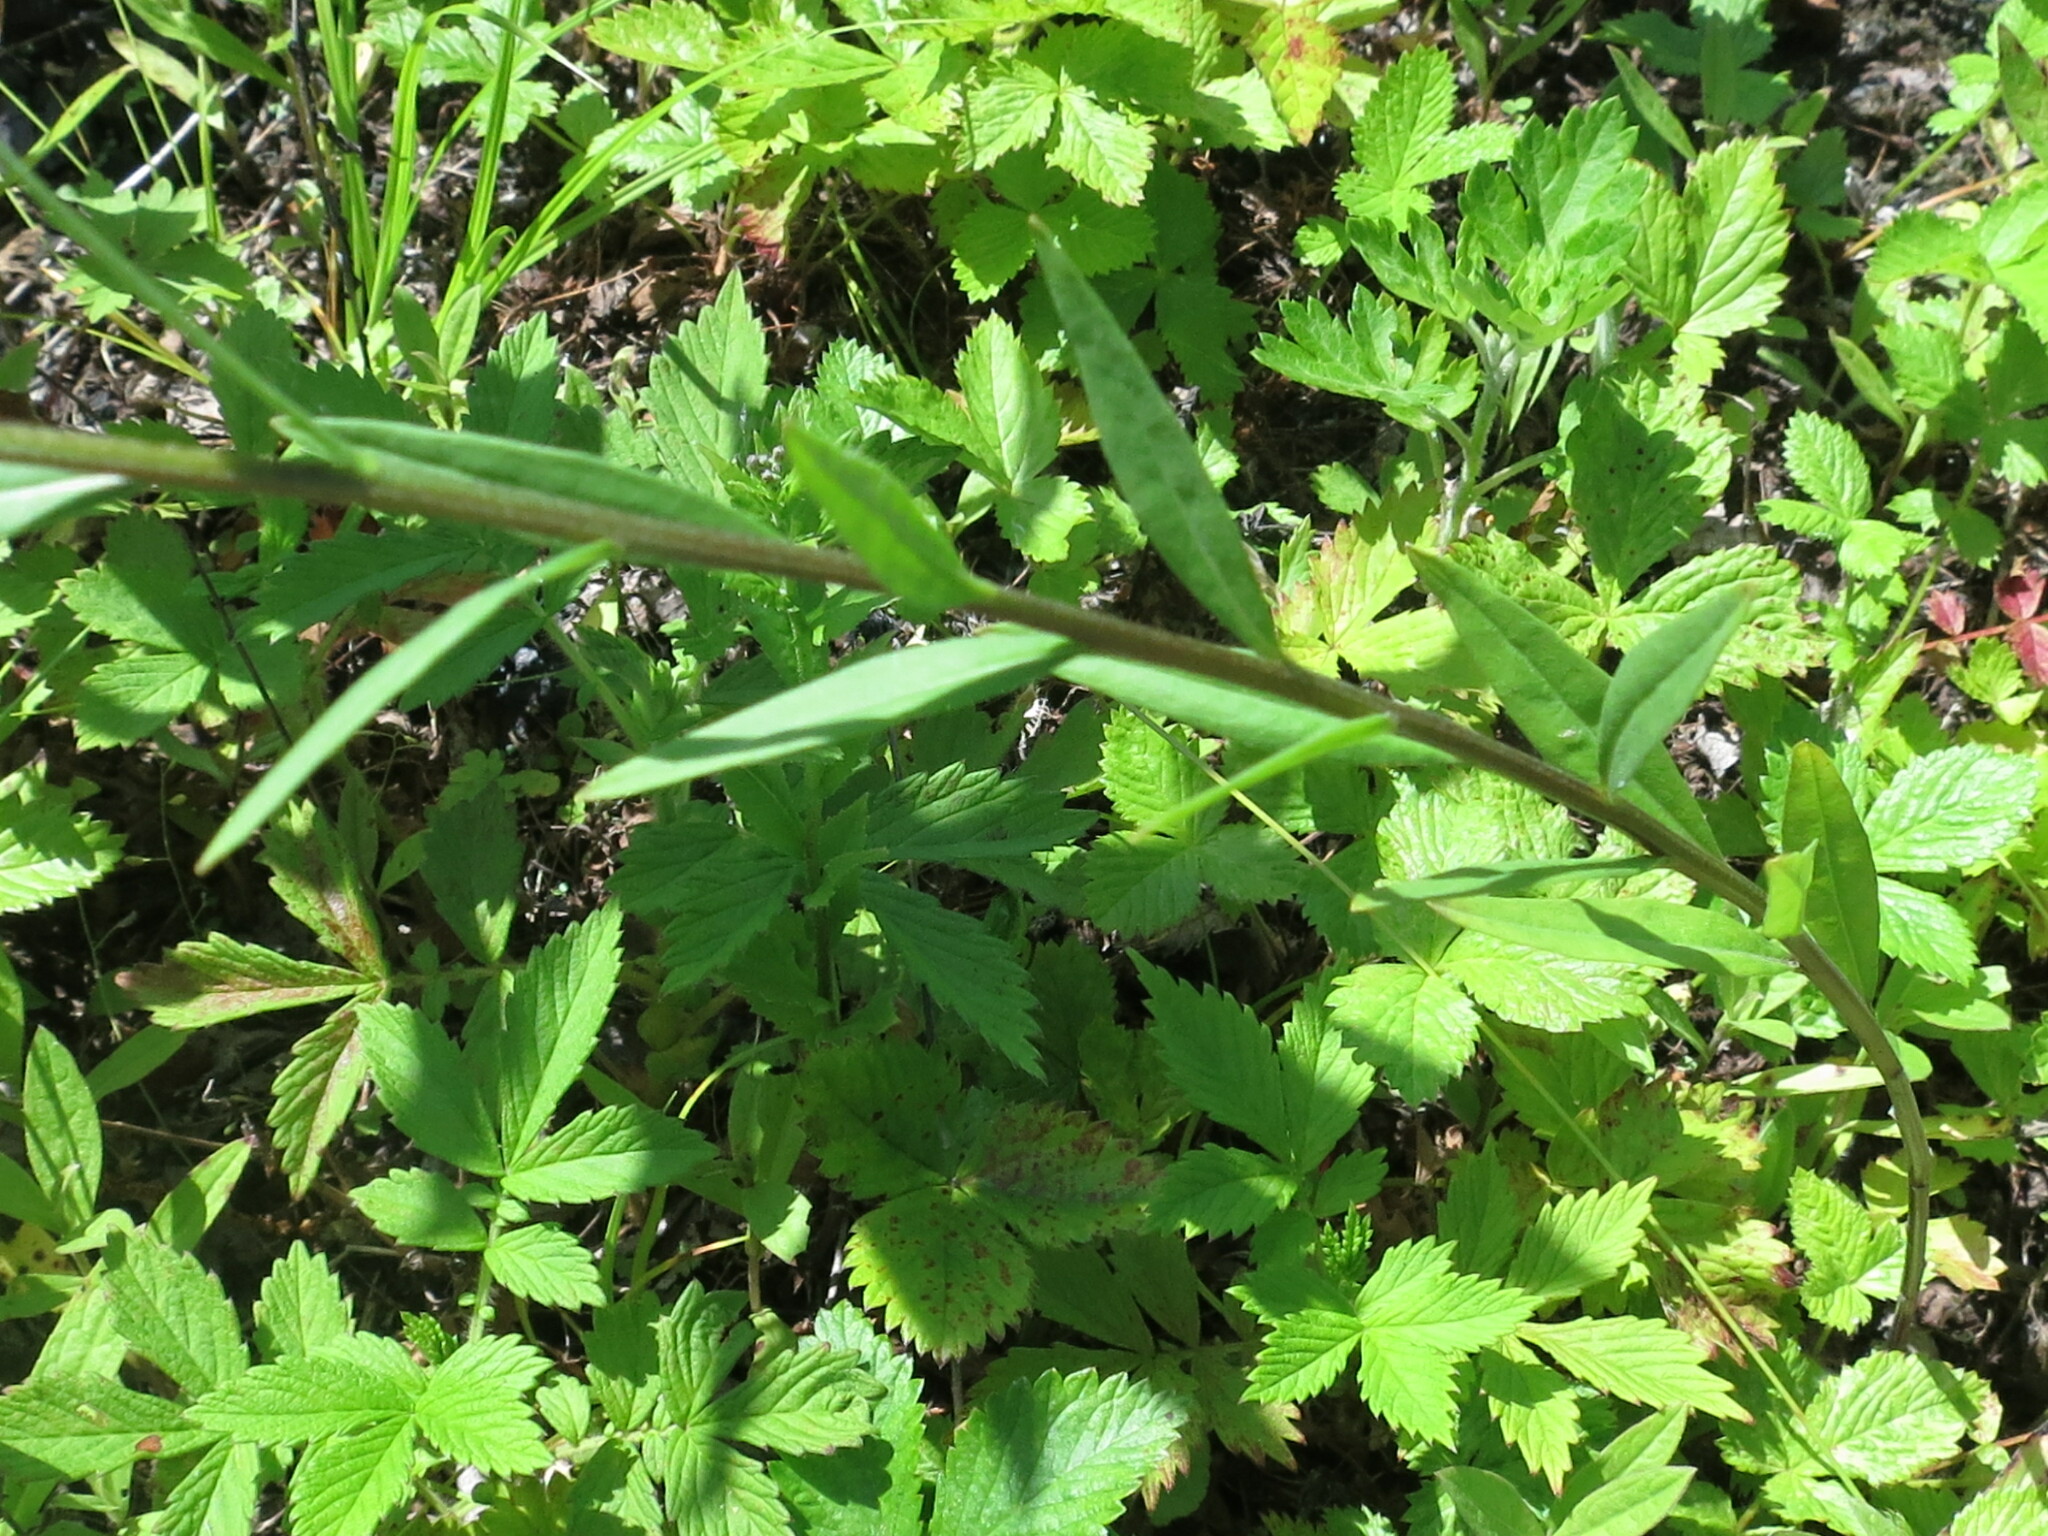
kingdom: Plantae
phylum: Tracheophyta
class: Magnoliopsida
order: Brassicales
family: Brassicaceae
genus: Erysimum
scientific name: Erysimum cheiranthoides
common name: Treacle mustard
